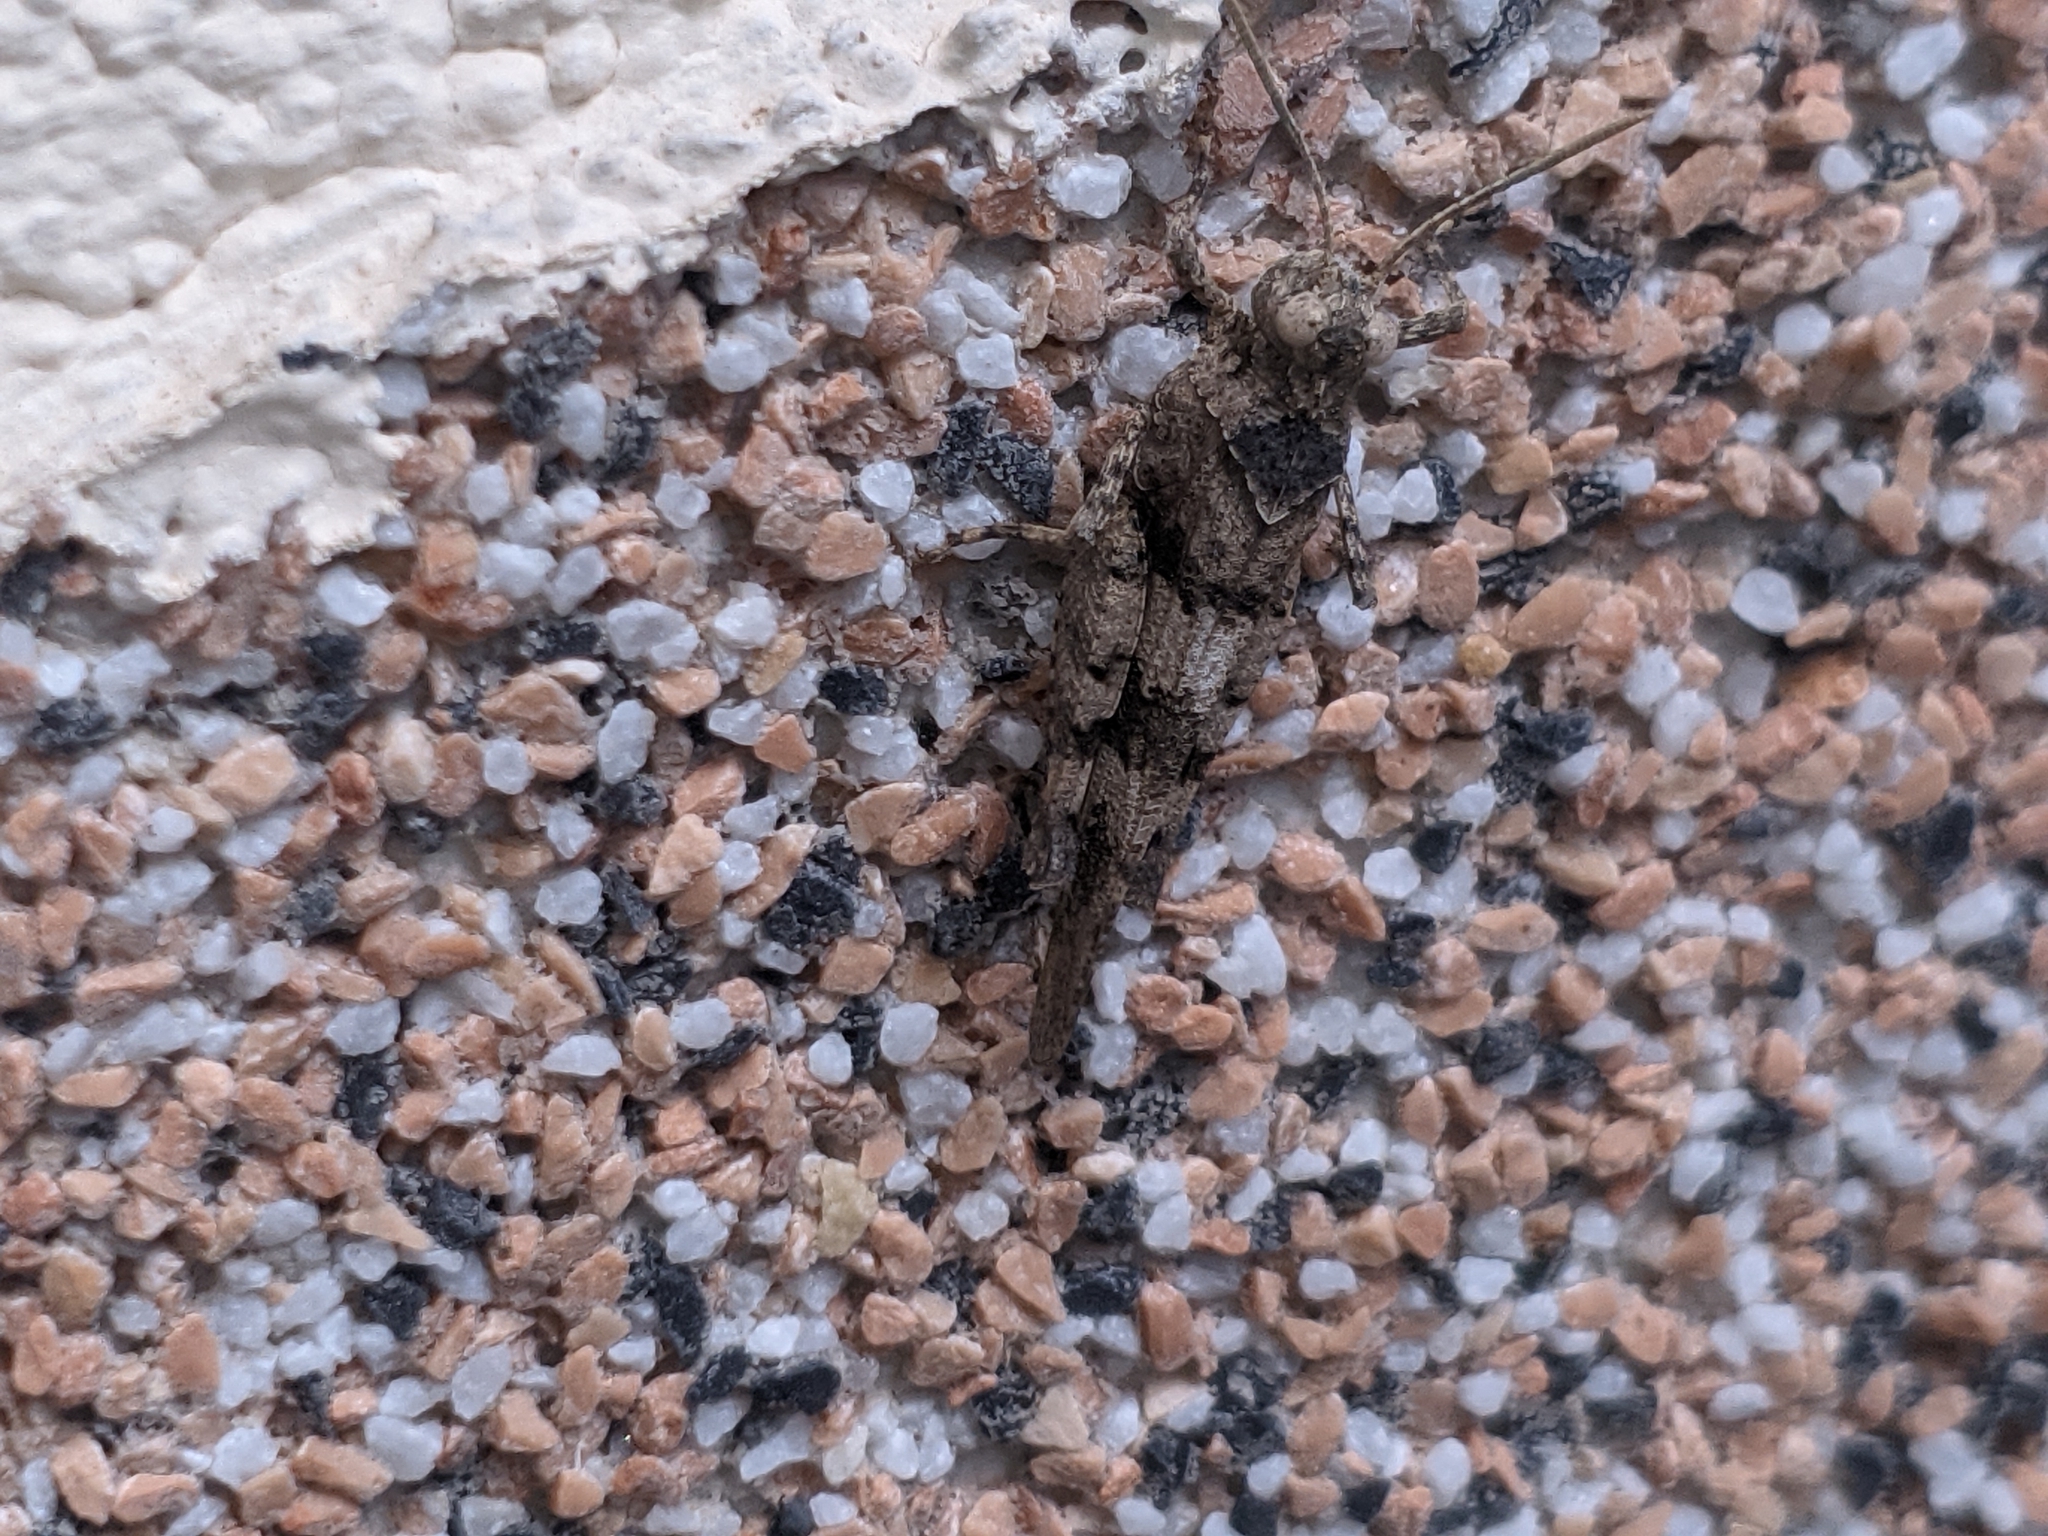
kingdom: Animalia
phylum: Arthropoda
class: Insecta
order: Orthoptera
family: Acrididae
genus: Oedipoda
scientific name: Oedipoda caerulescens
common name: Blue-winged grasshopper
